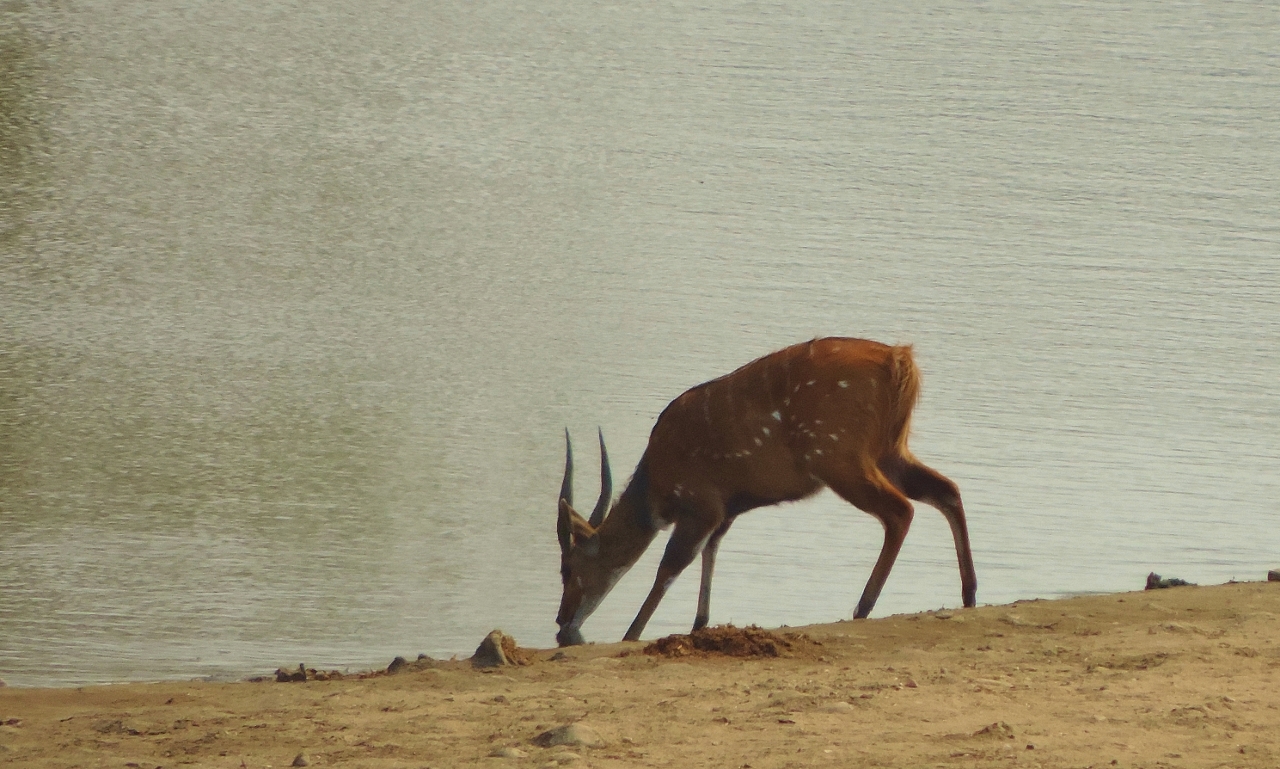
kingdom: Animalia
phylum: Chordata
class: Mammalia
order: Artiodactyla
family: Bovidae
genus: Tragelaphus
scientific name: Tragelaphus scriptus
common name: Bushbuck
